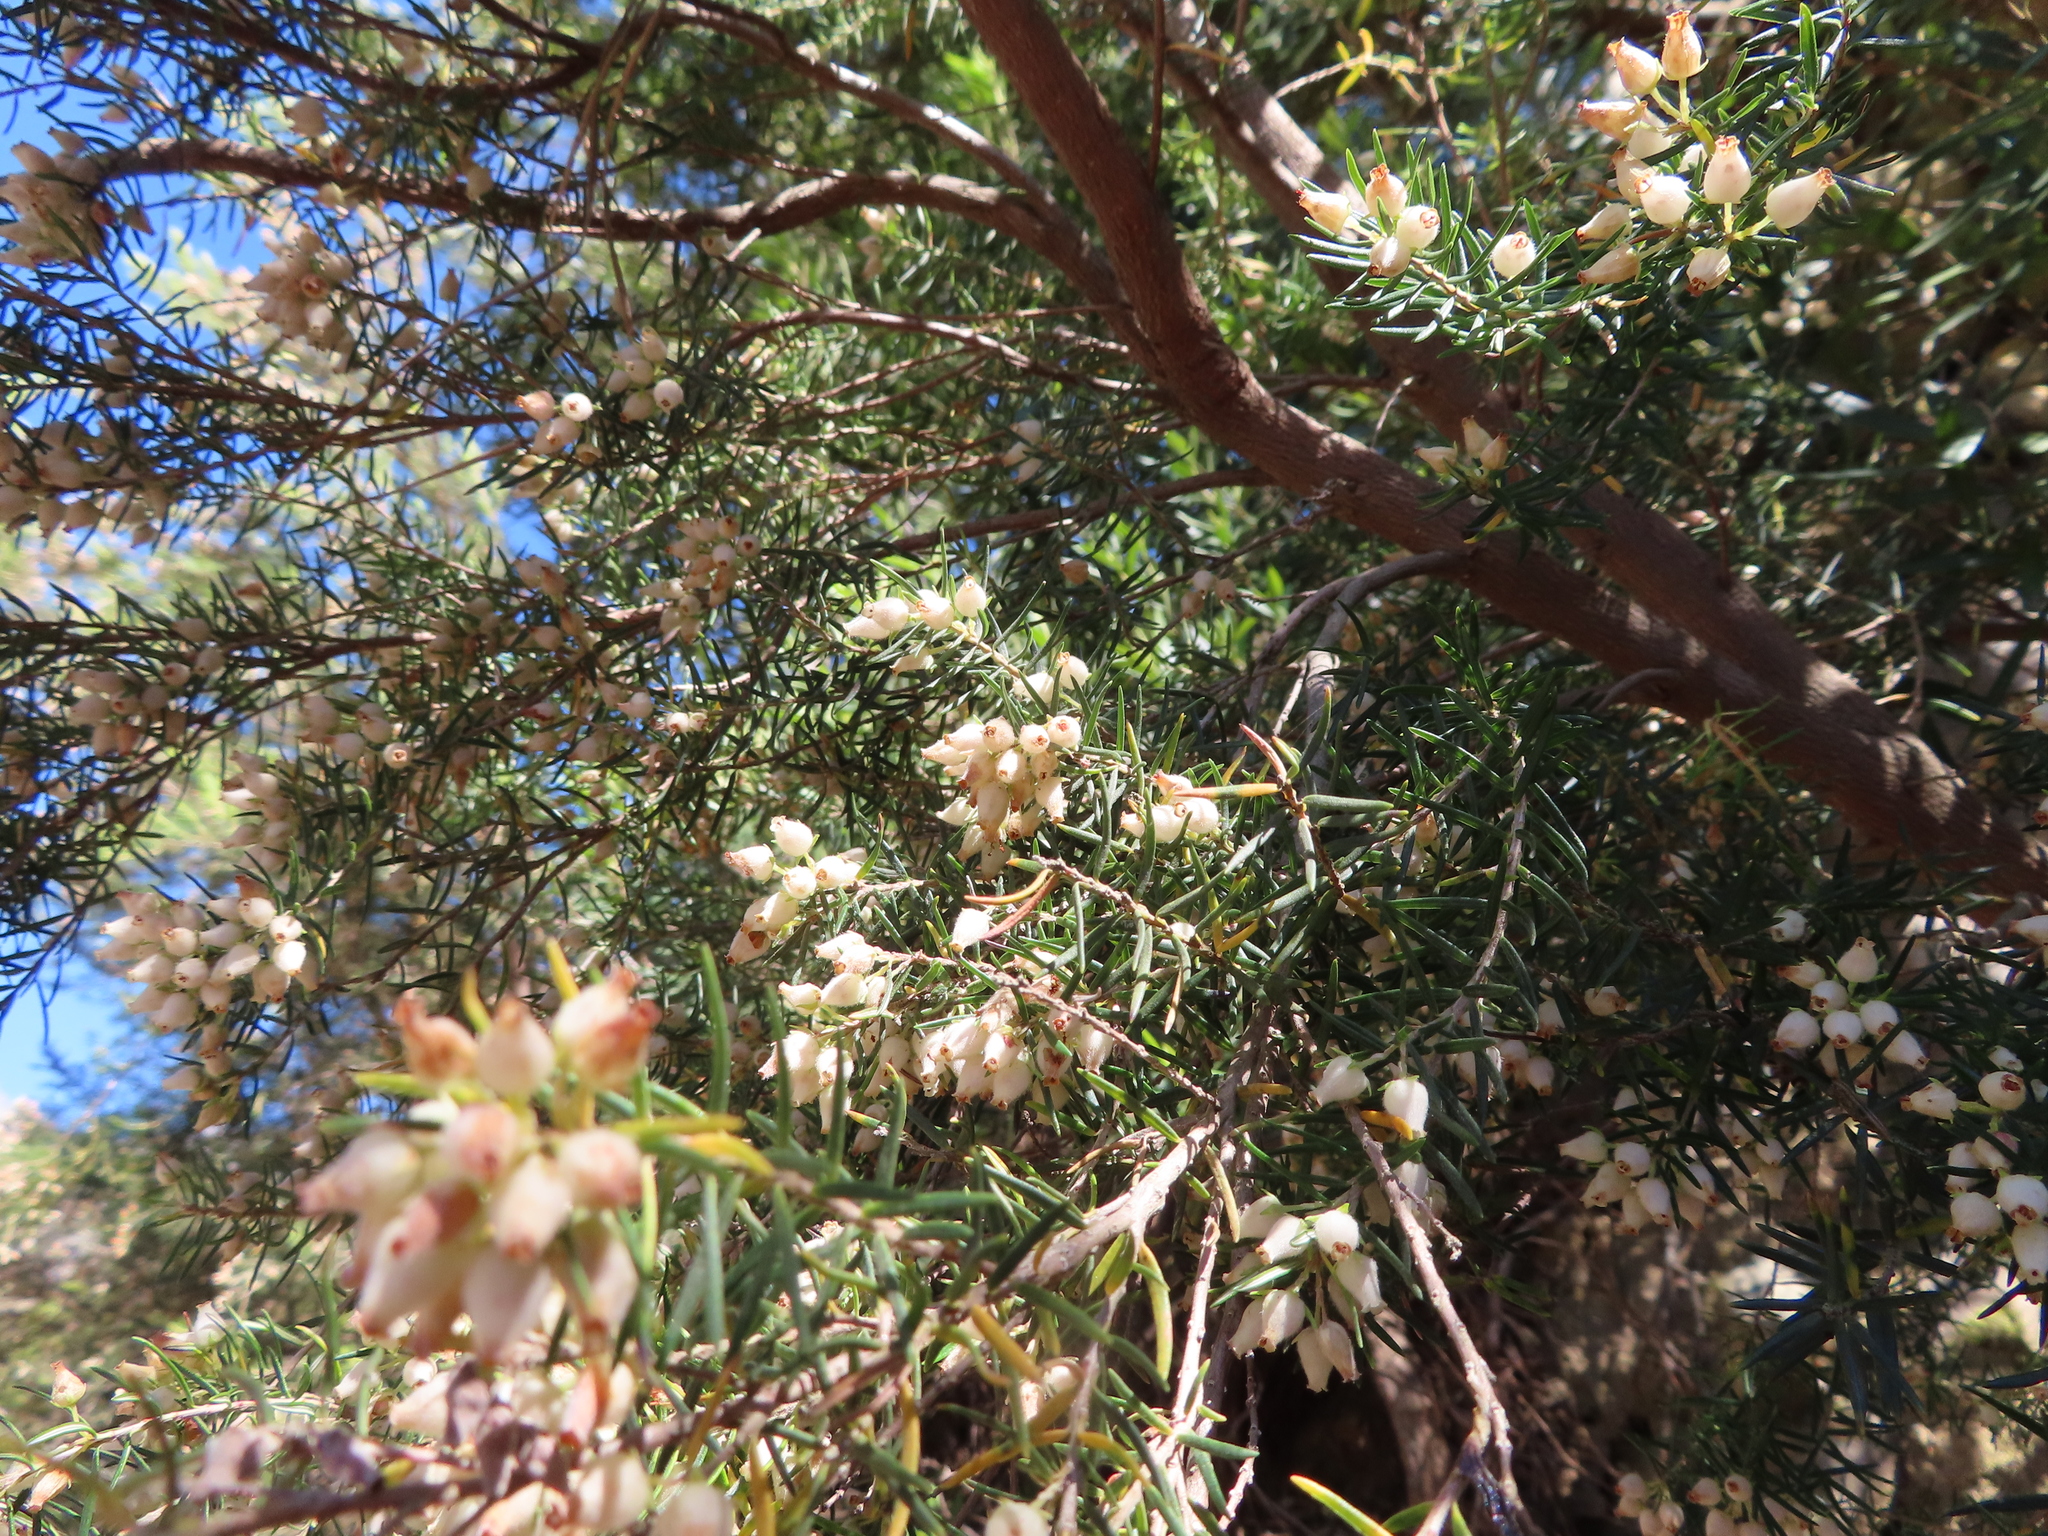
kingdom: Plantae
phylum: Tracheophyta
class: Magnoliopsida
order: Ericales
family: Ericaceae
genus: Erica
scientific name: Erica caffra
